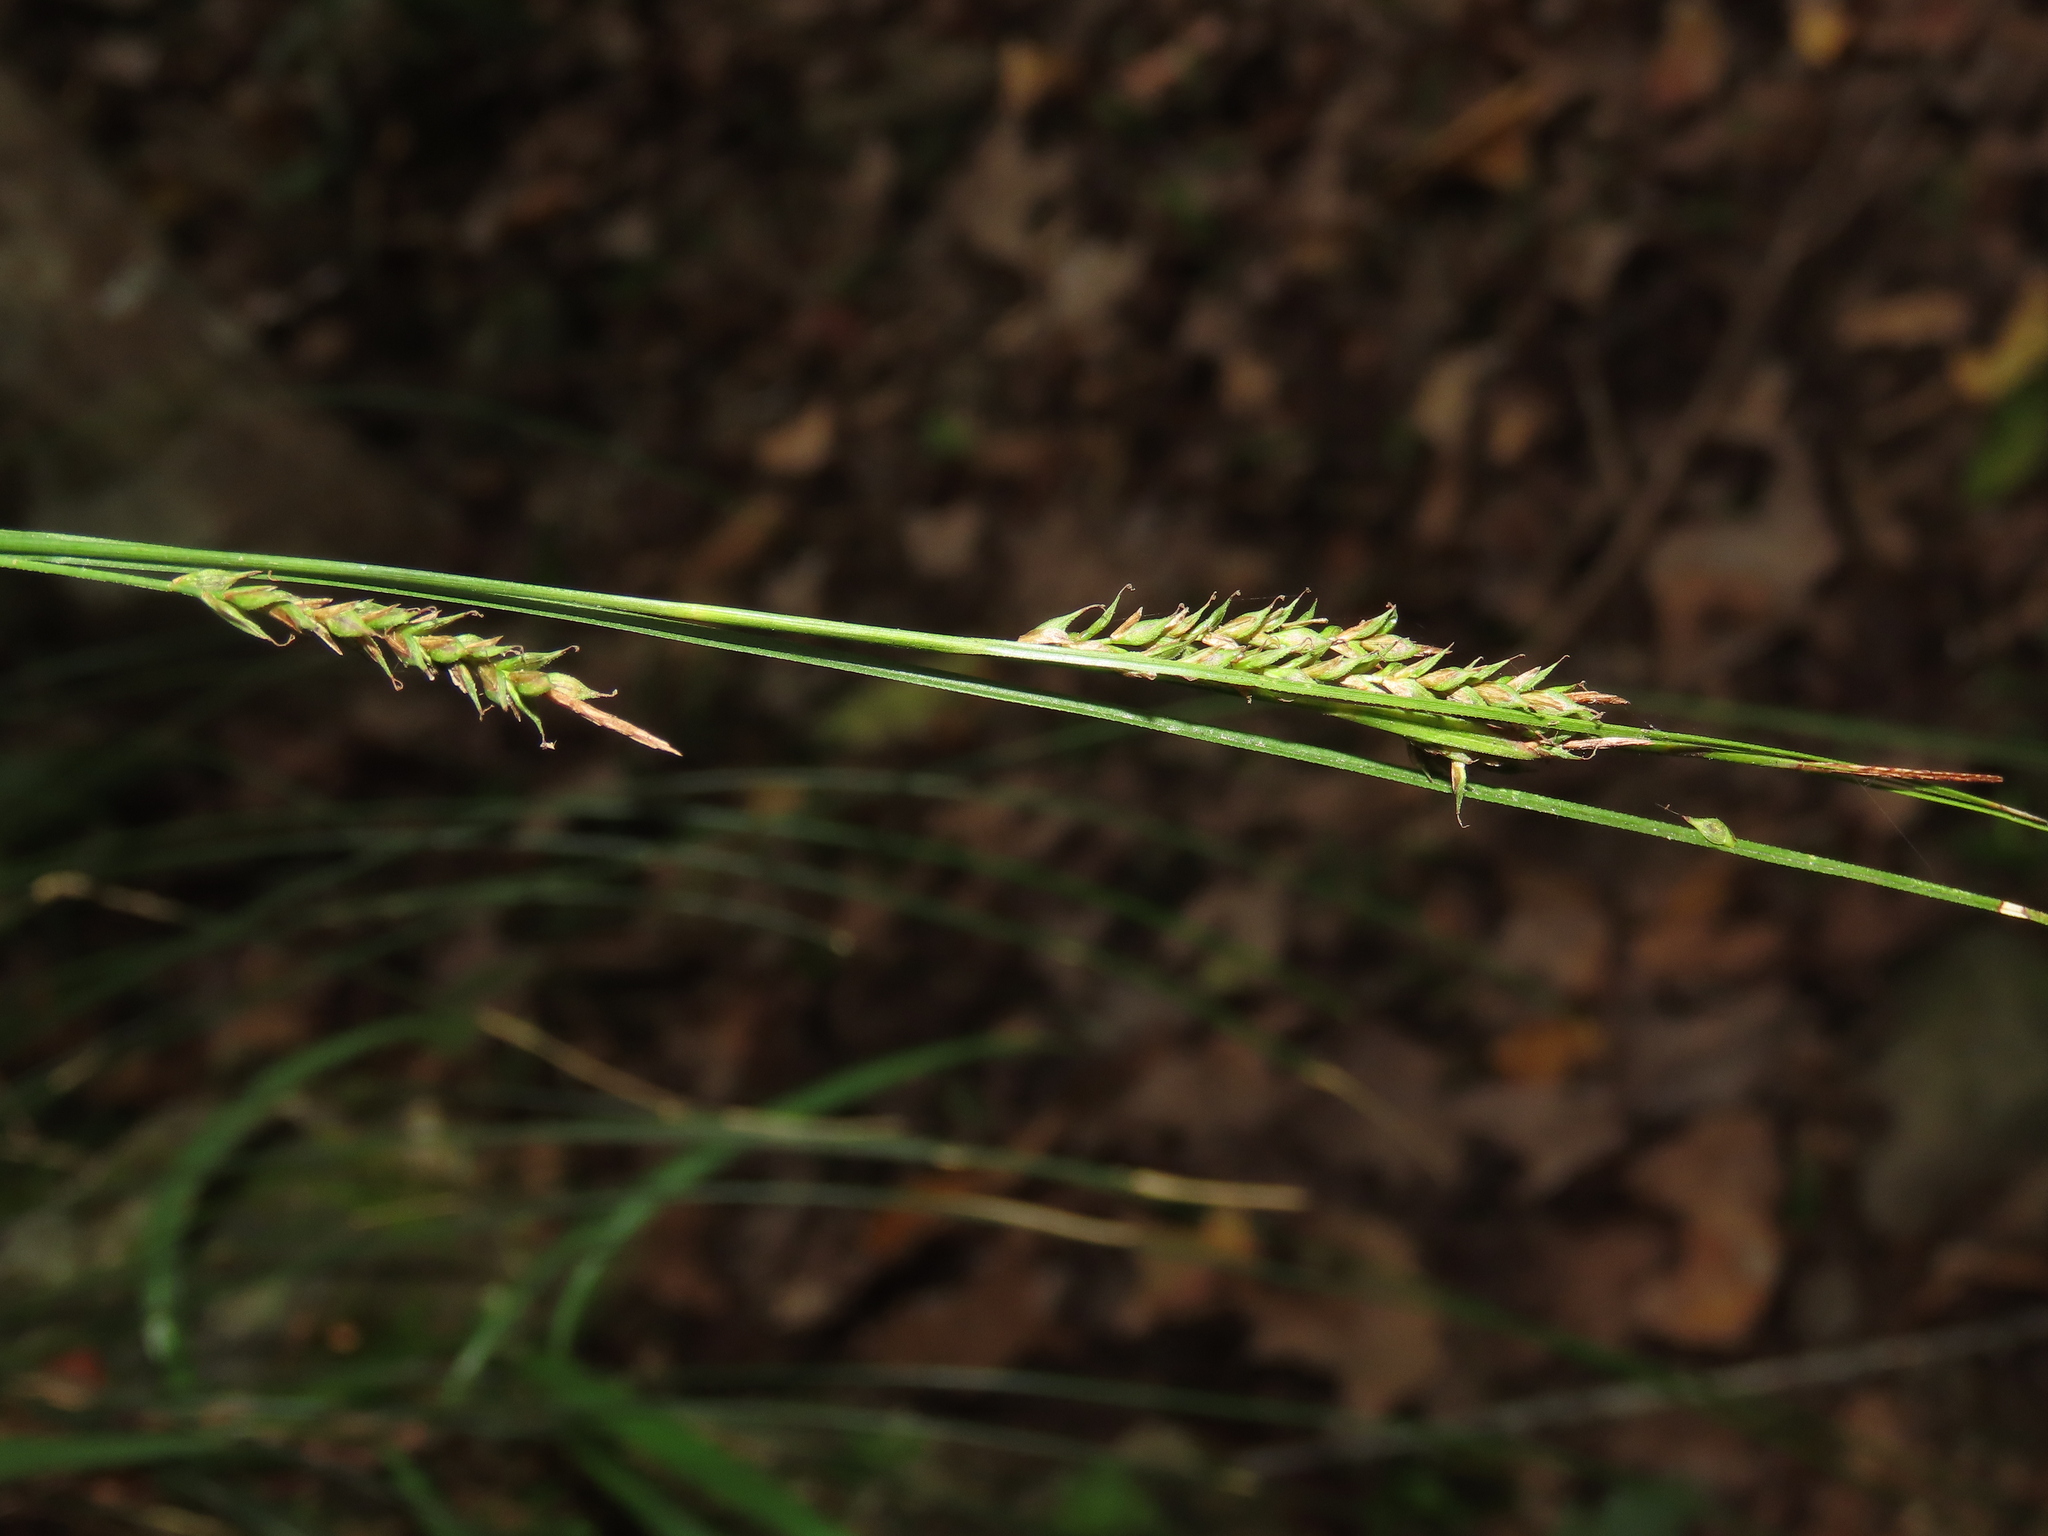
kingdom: Plantae
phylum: Tracheophyta
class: Liliopsida
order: Poales
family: Cyperaceae
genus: Carex
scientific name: Carex brunnea
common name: Greater brown sedge
